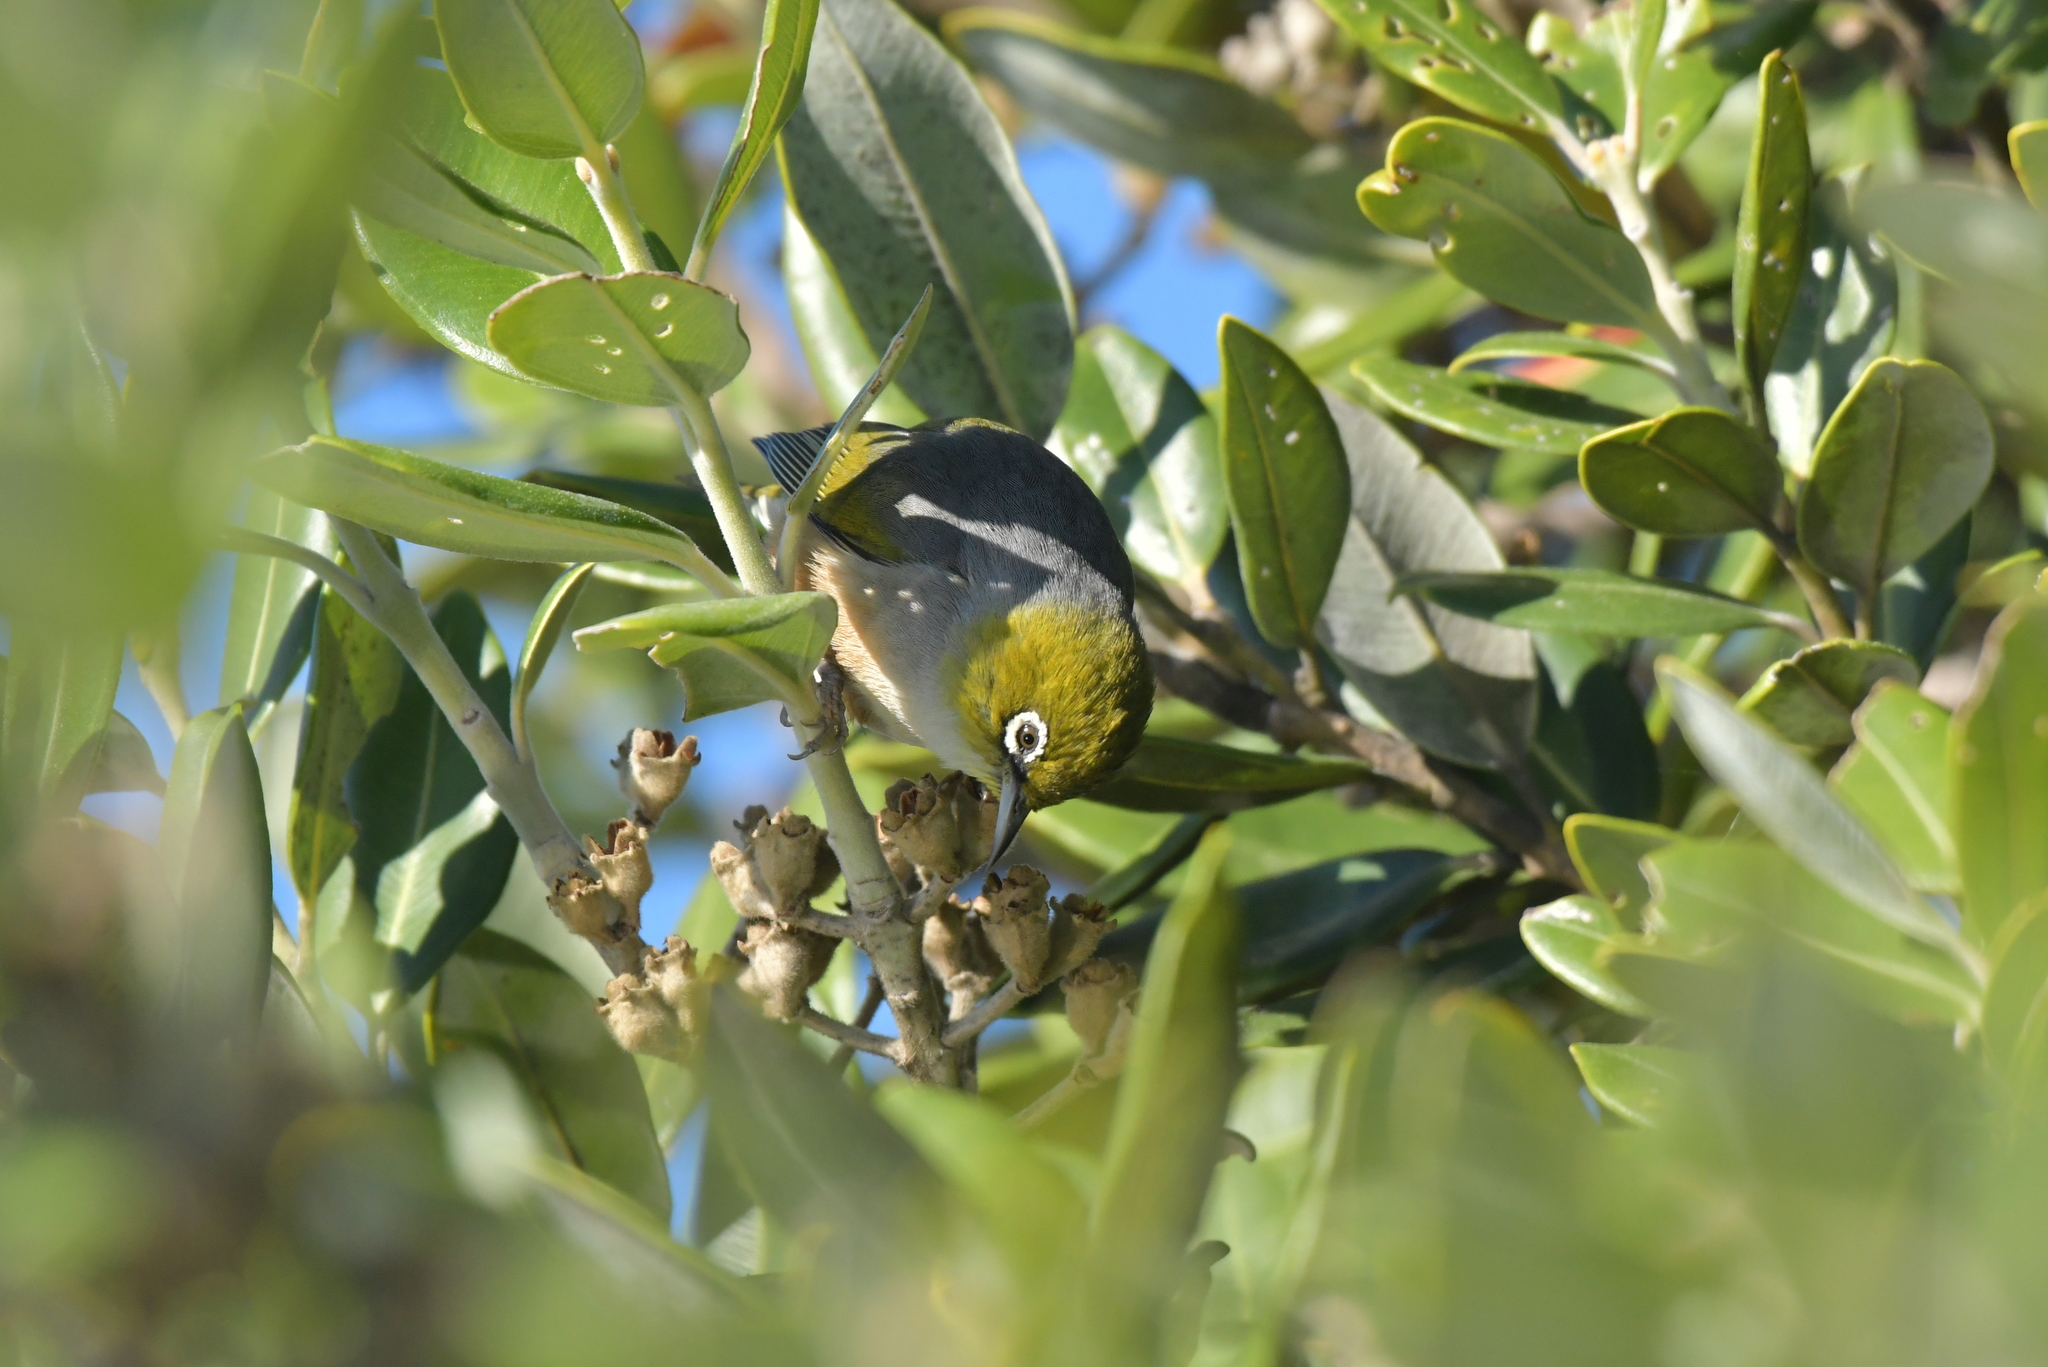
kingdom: Animalia
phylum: Chordata
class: Aves
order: Passeriformes
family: Zosteropidae
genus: Zosterops
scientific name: Zosterops lateralis
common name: Silvereye
